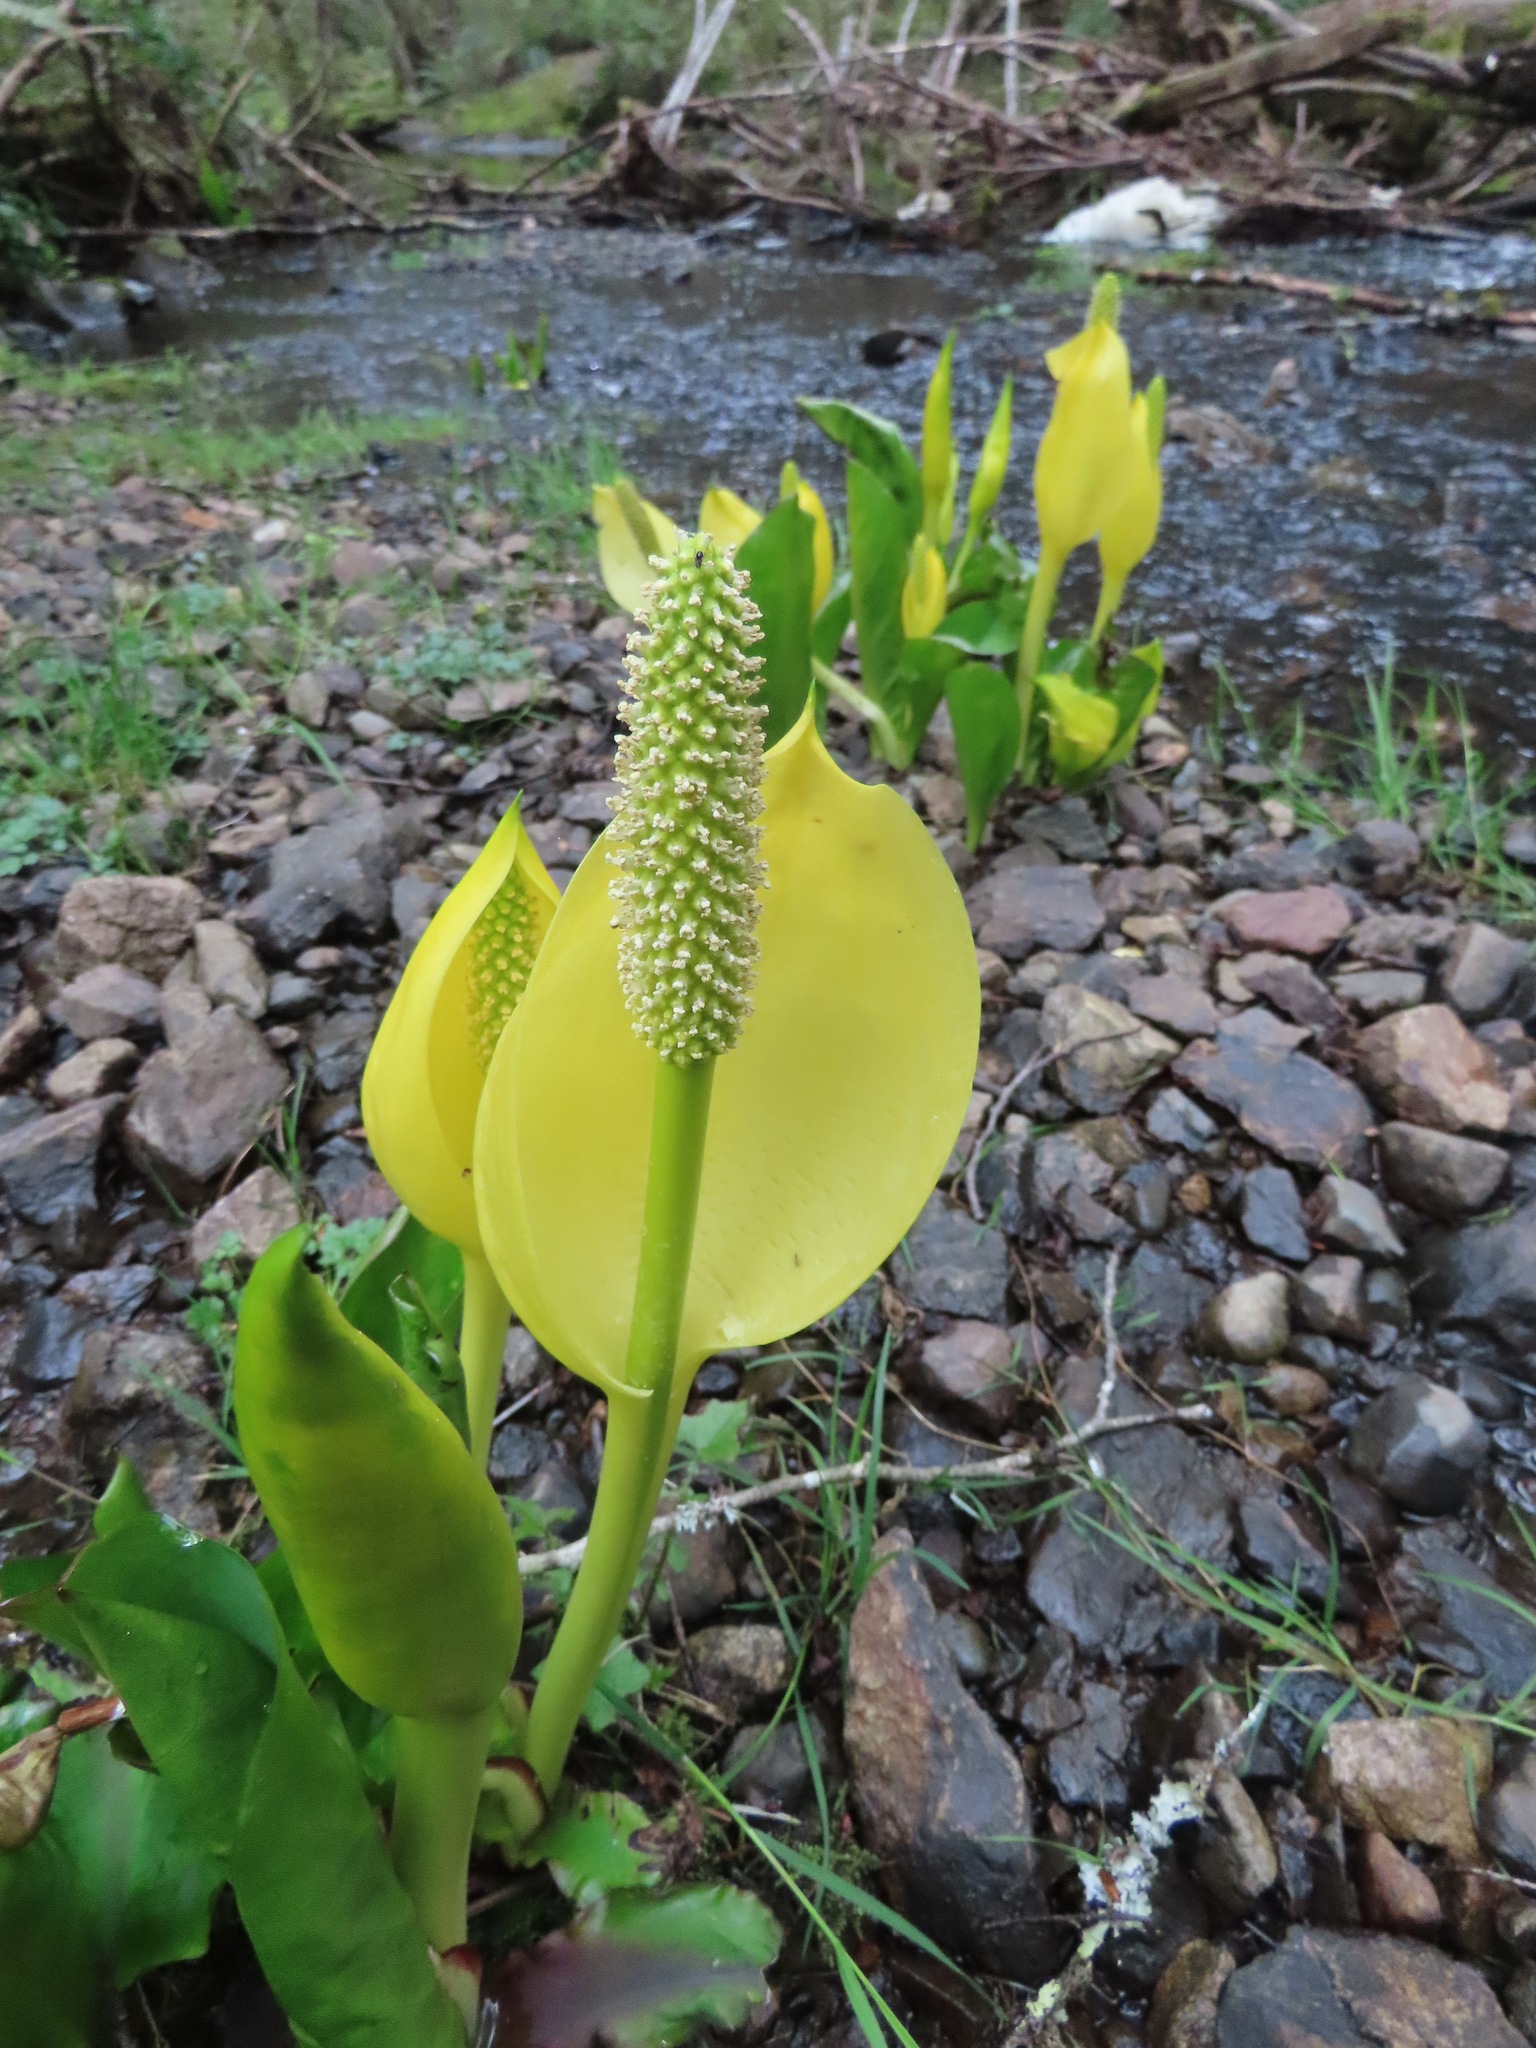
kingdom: Plantae
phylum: Tracheophyta
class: Liliopsida
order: Alismatales
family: Araceae
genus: Lysichiton
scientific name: Lysichiton americanus
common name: American skunk cabbage
